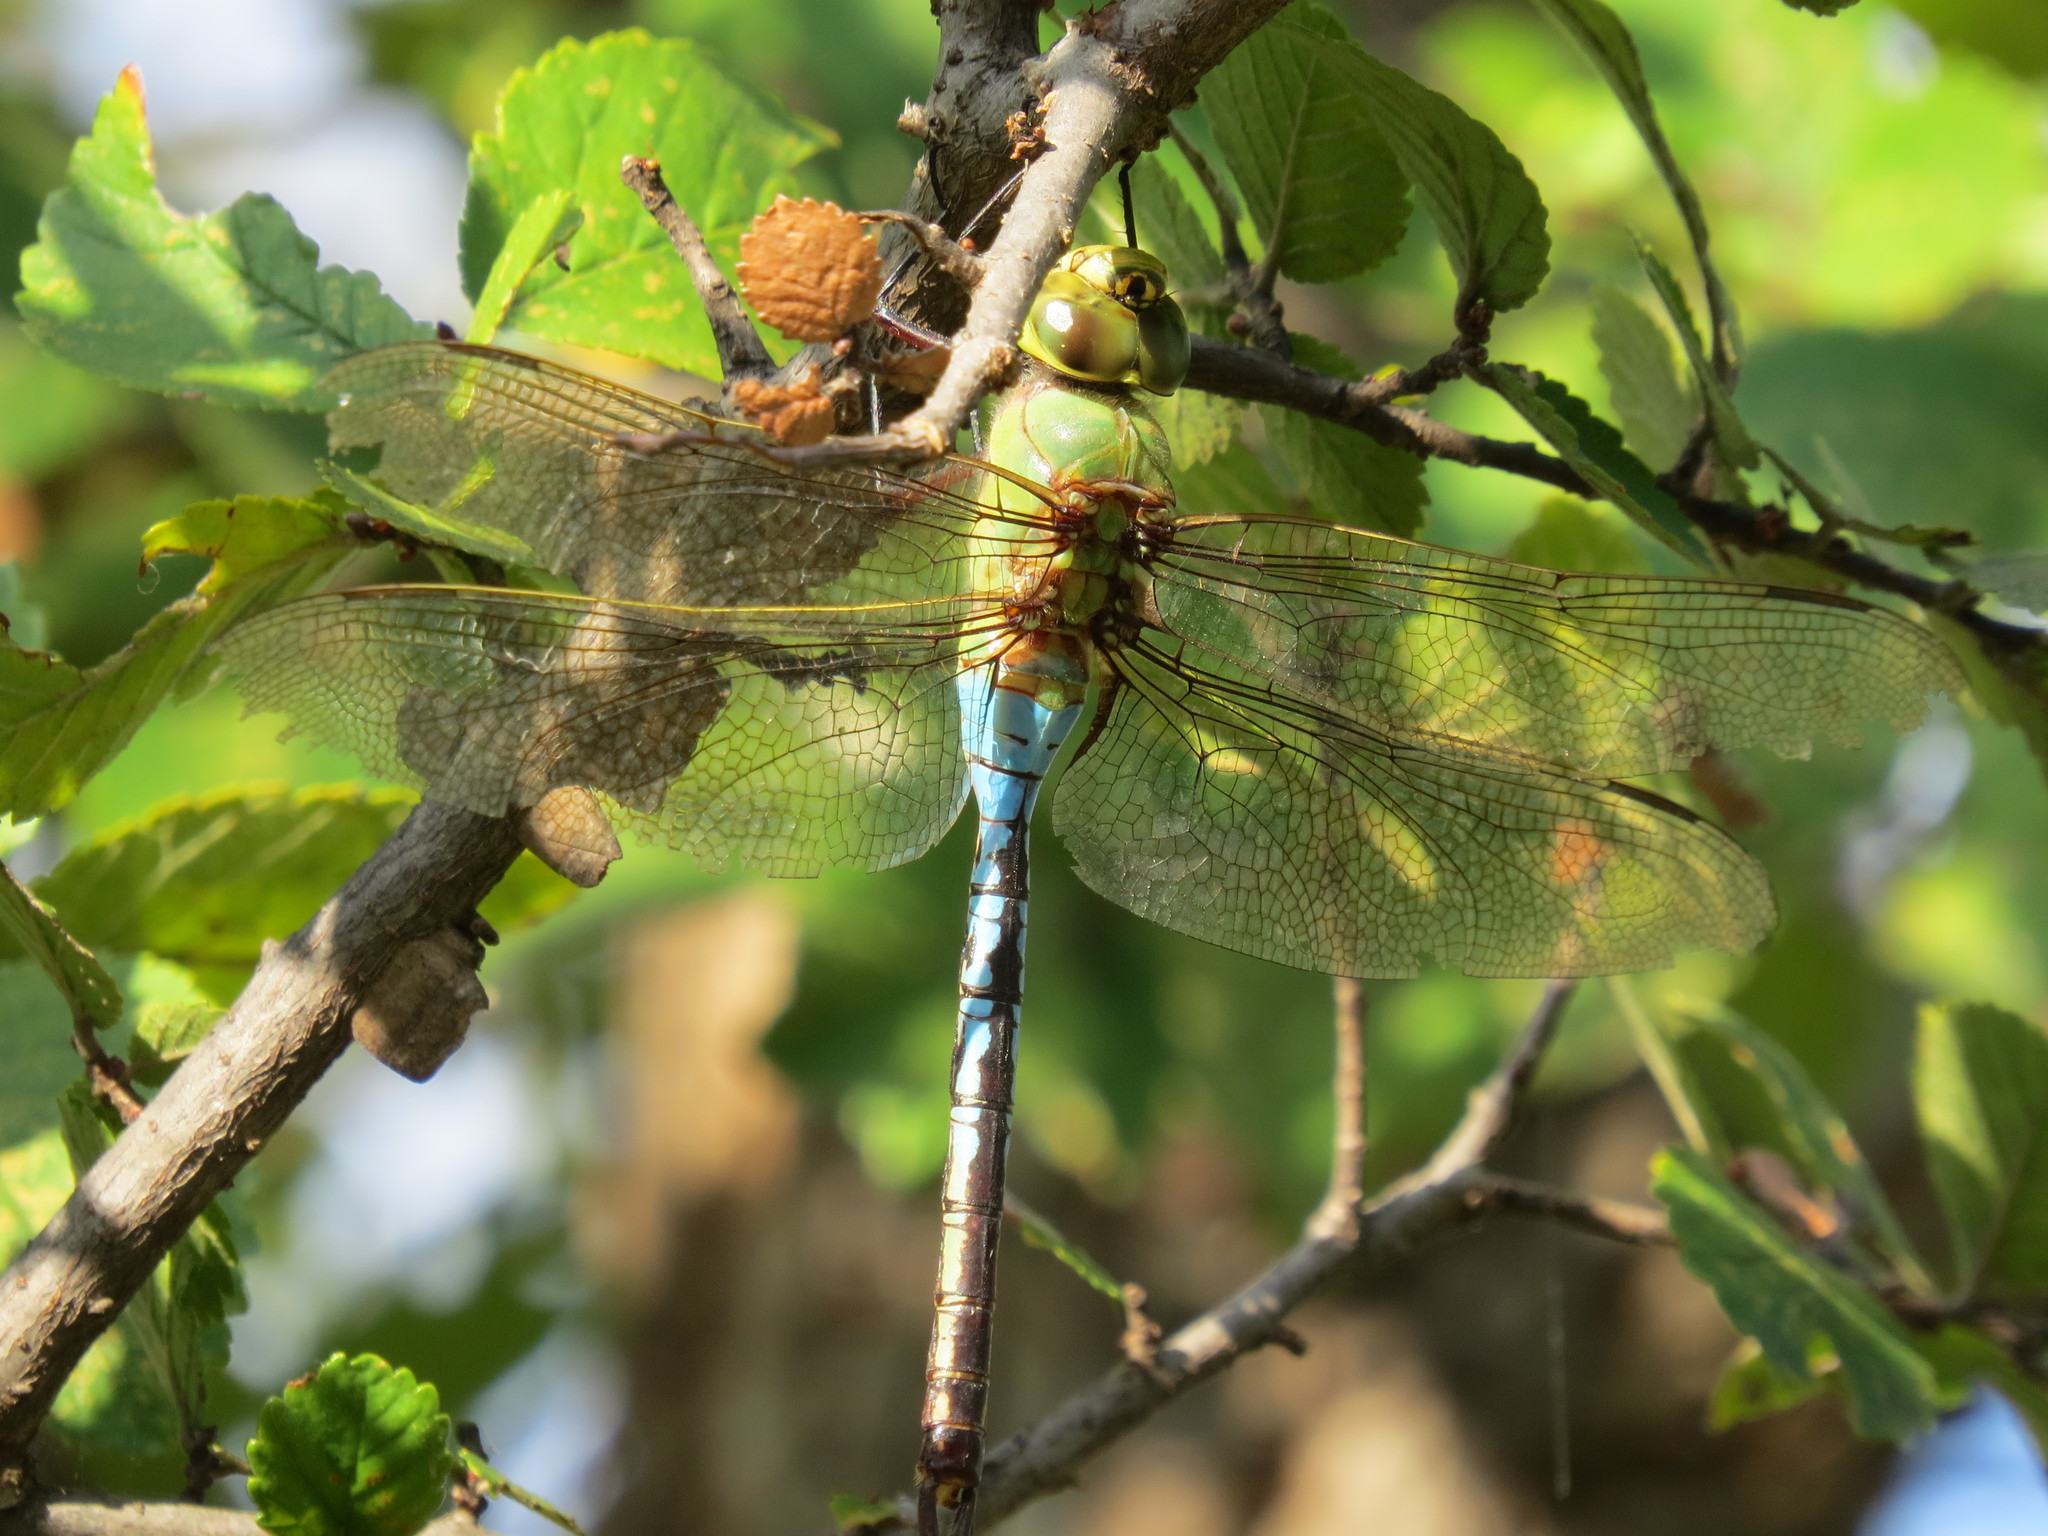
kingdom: Animalia
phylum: Arthropoda
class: Insecta
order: Odonata
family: Aeshnidae
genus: Anax
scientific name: Anax junius
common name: Common green darner
